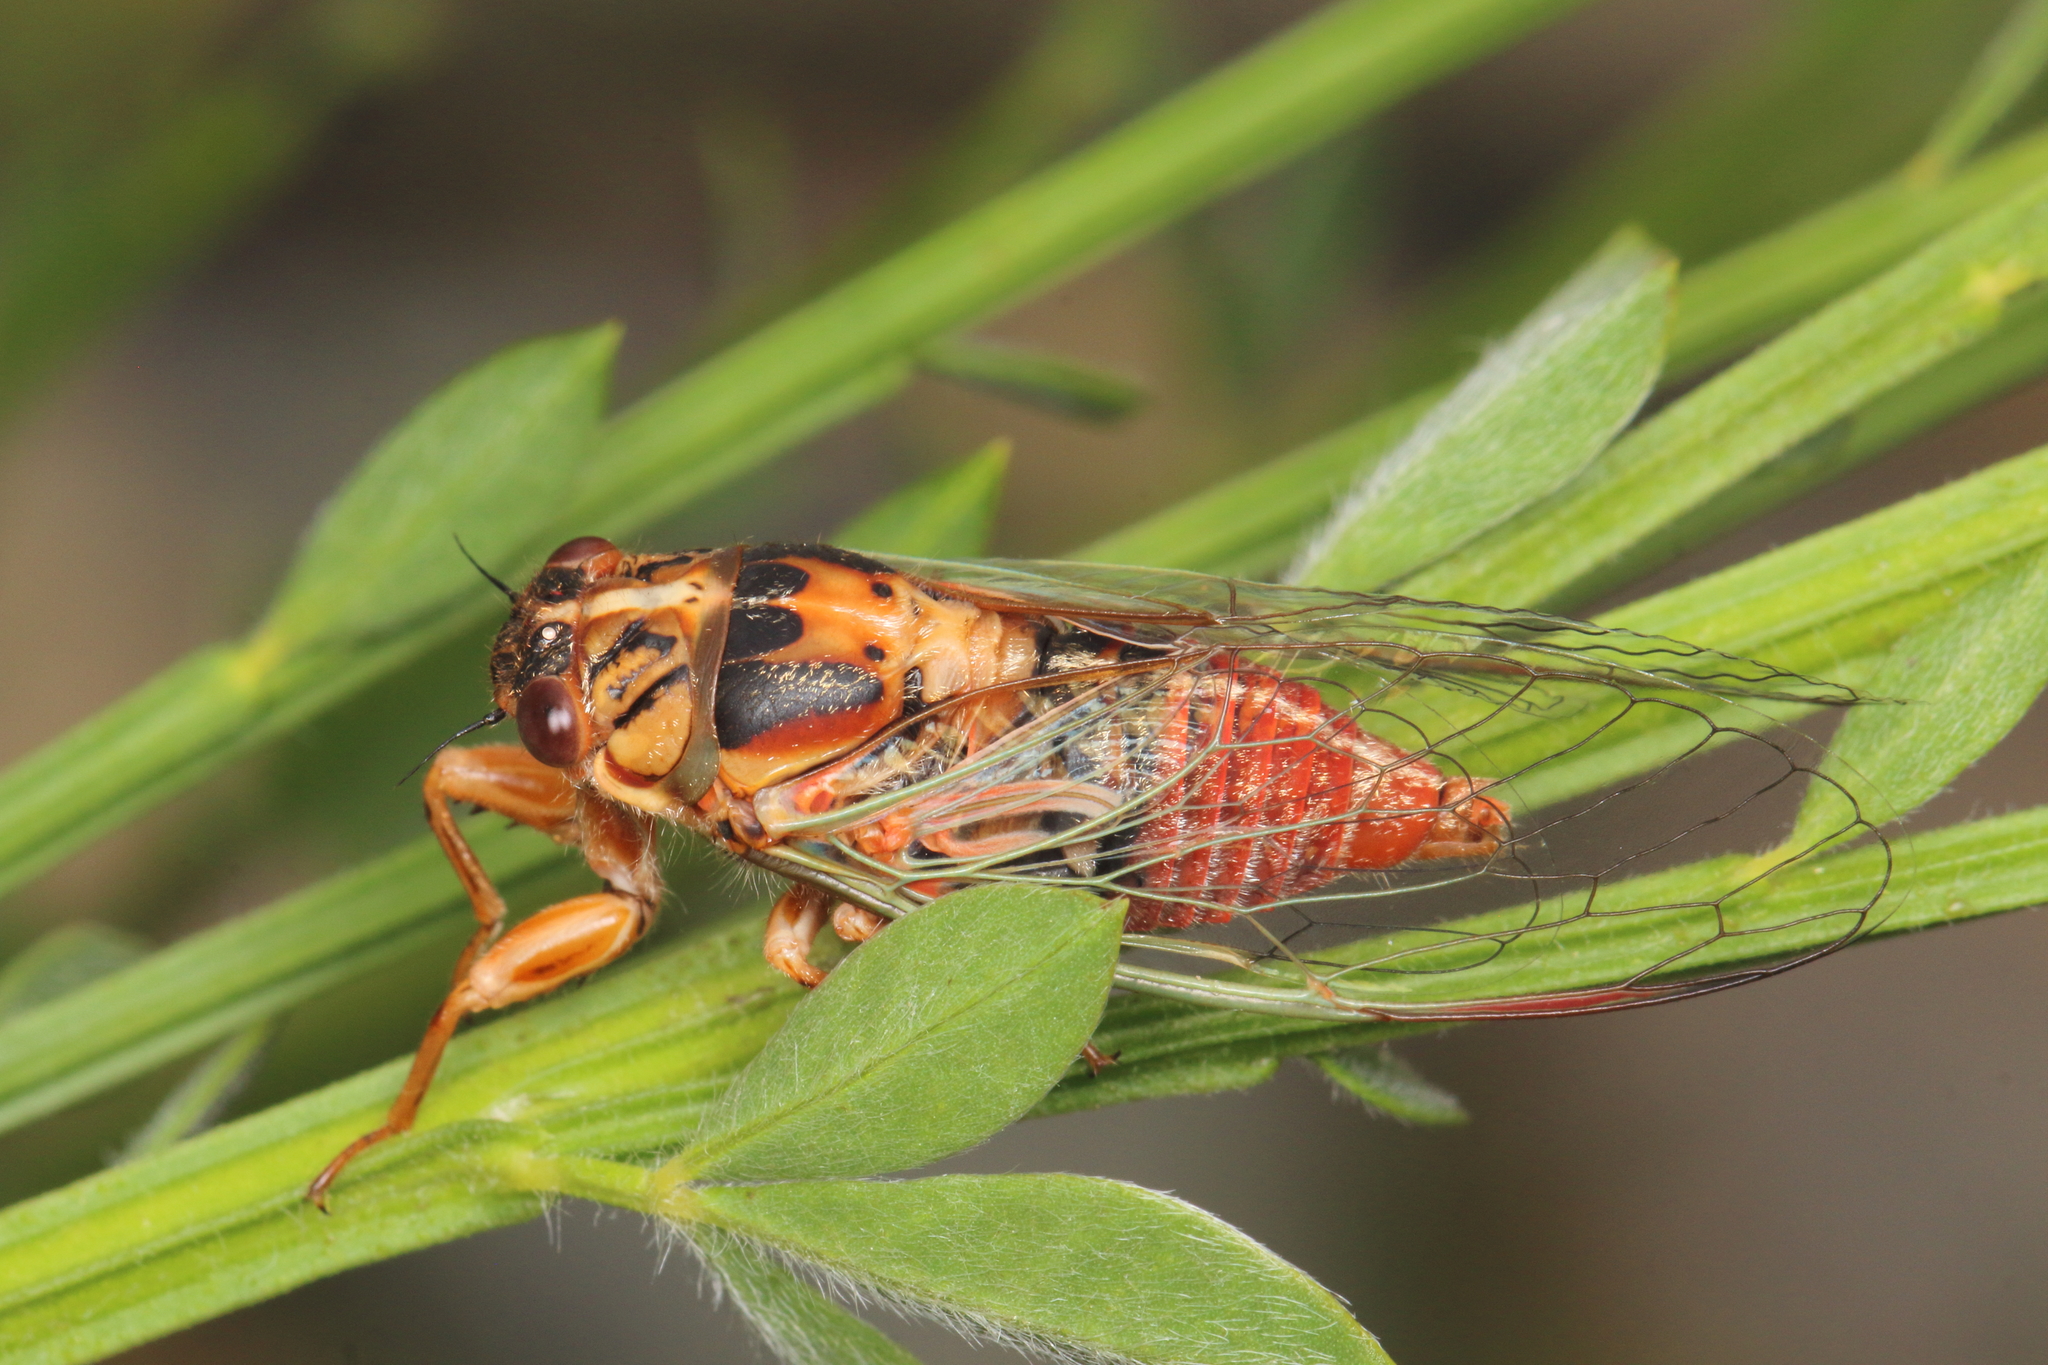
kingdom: Animalia
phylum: Arthropoda
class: Insecta
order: Hemiptera
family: Cicadidae
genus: Rhodopsalta
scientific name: Rhodopsalta cruentata
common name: Blood redtail cicada
